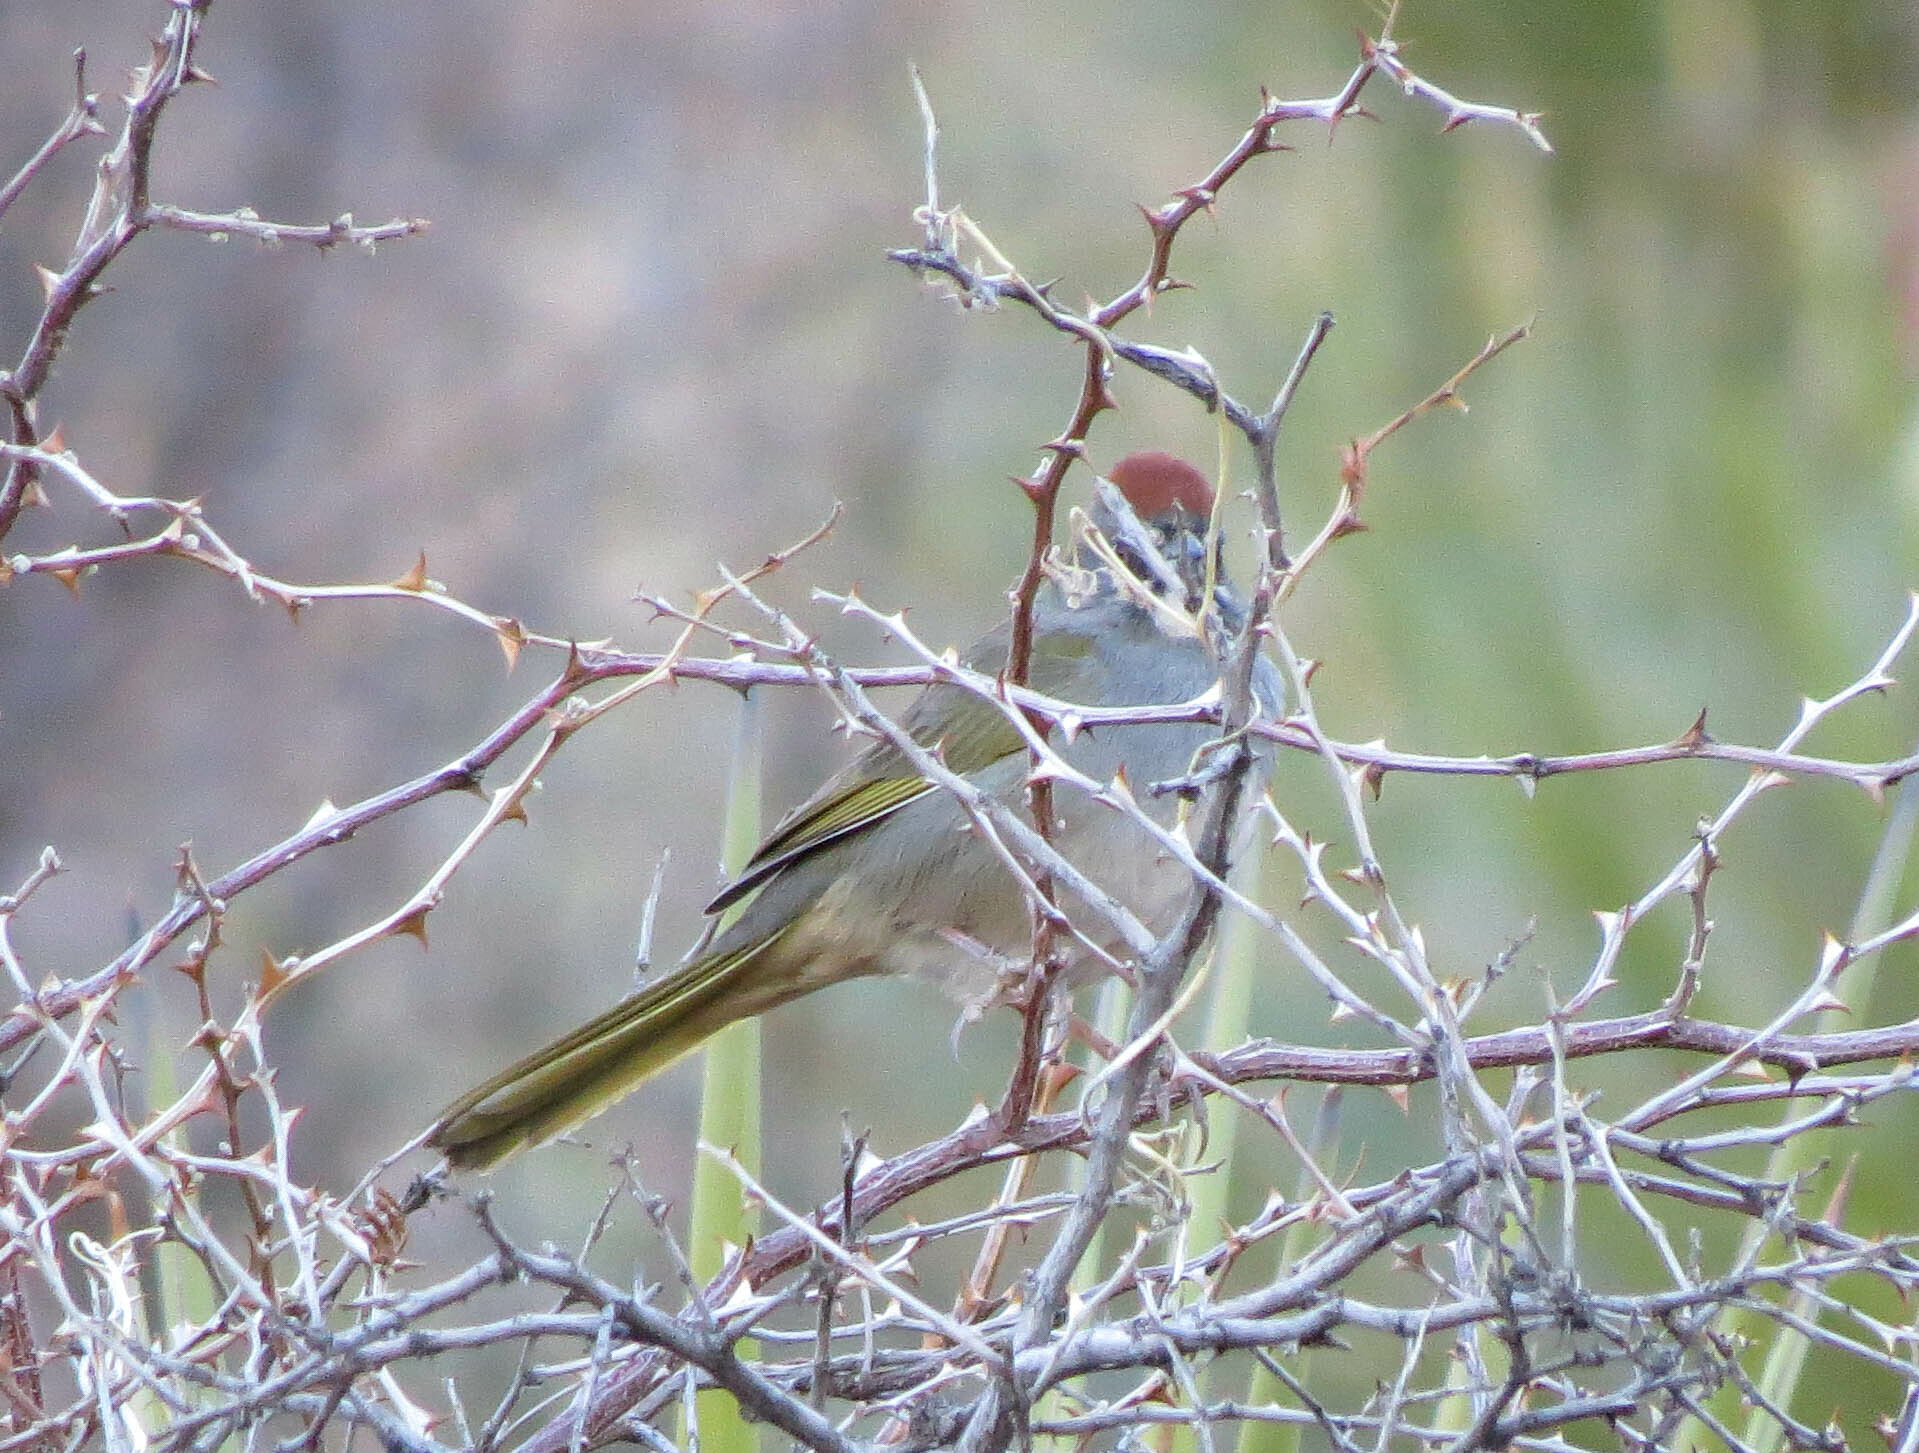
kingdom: Animalia
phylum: Chordata
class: Aves
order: Passeriformes
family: Passerellidae
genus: Pipilo
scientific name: Pipilo chlorurus
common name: Green-tailed towhee
